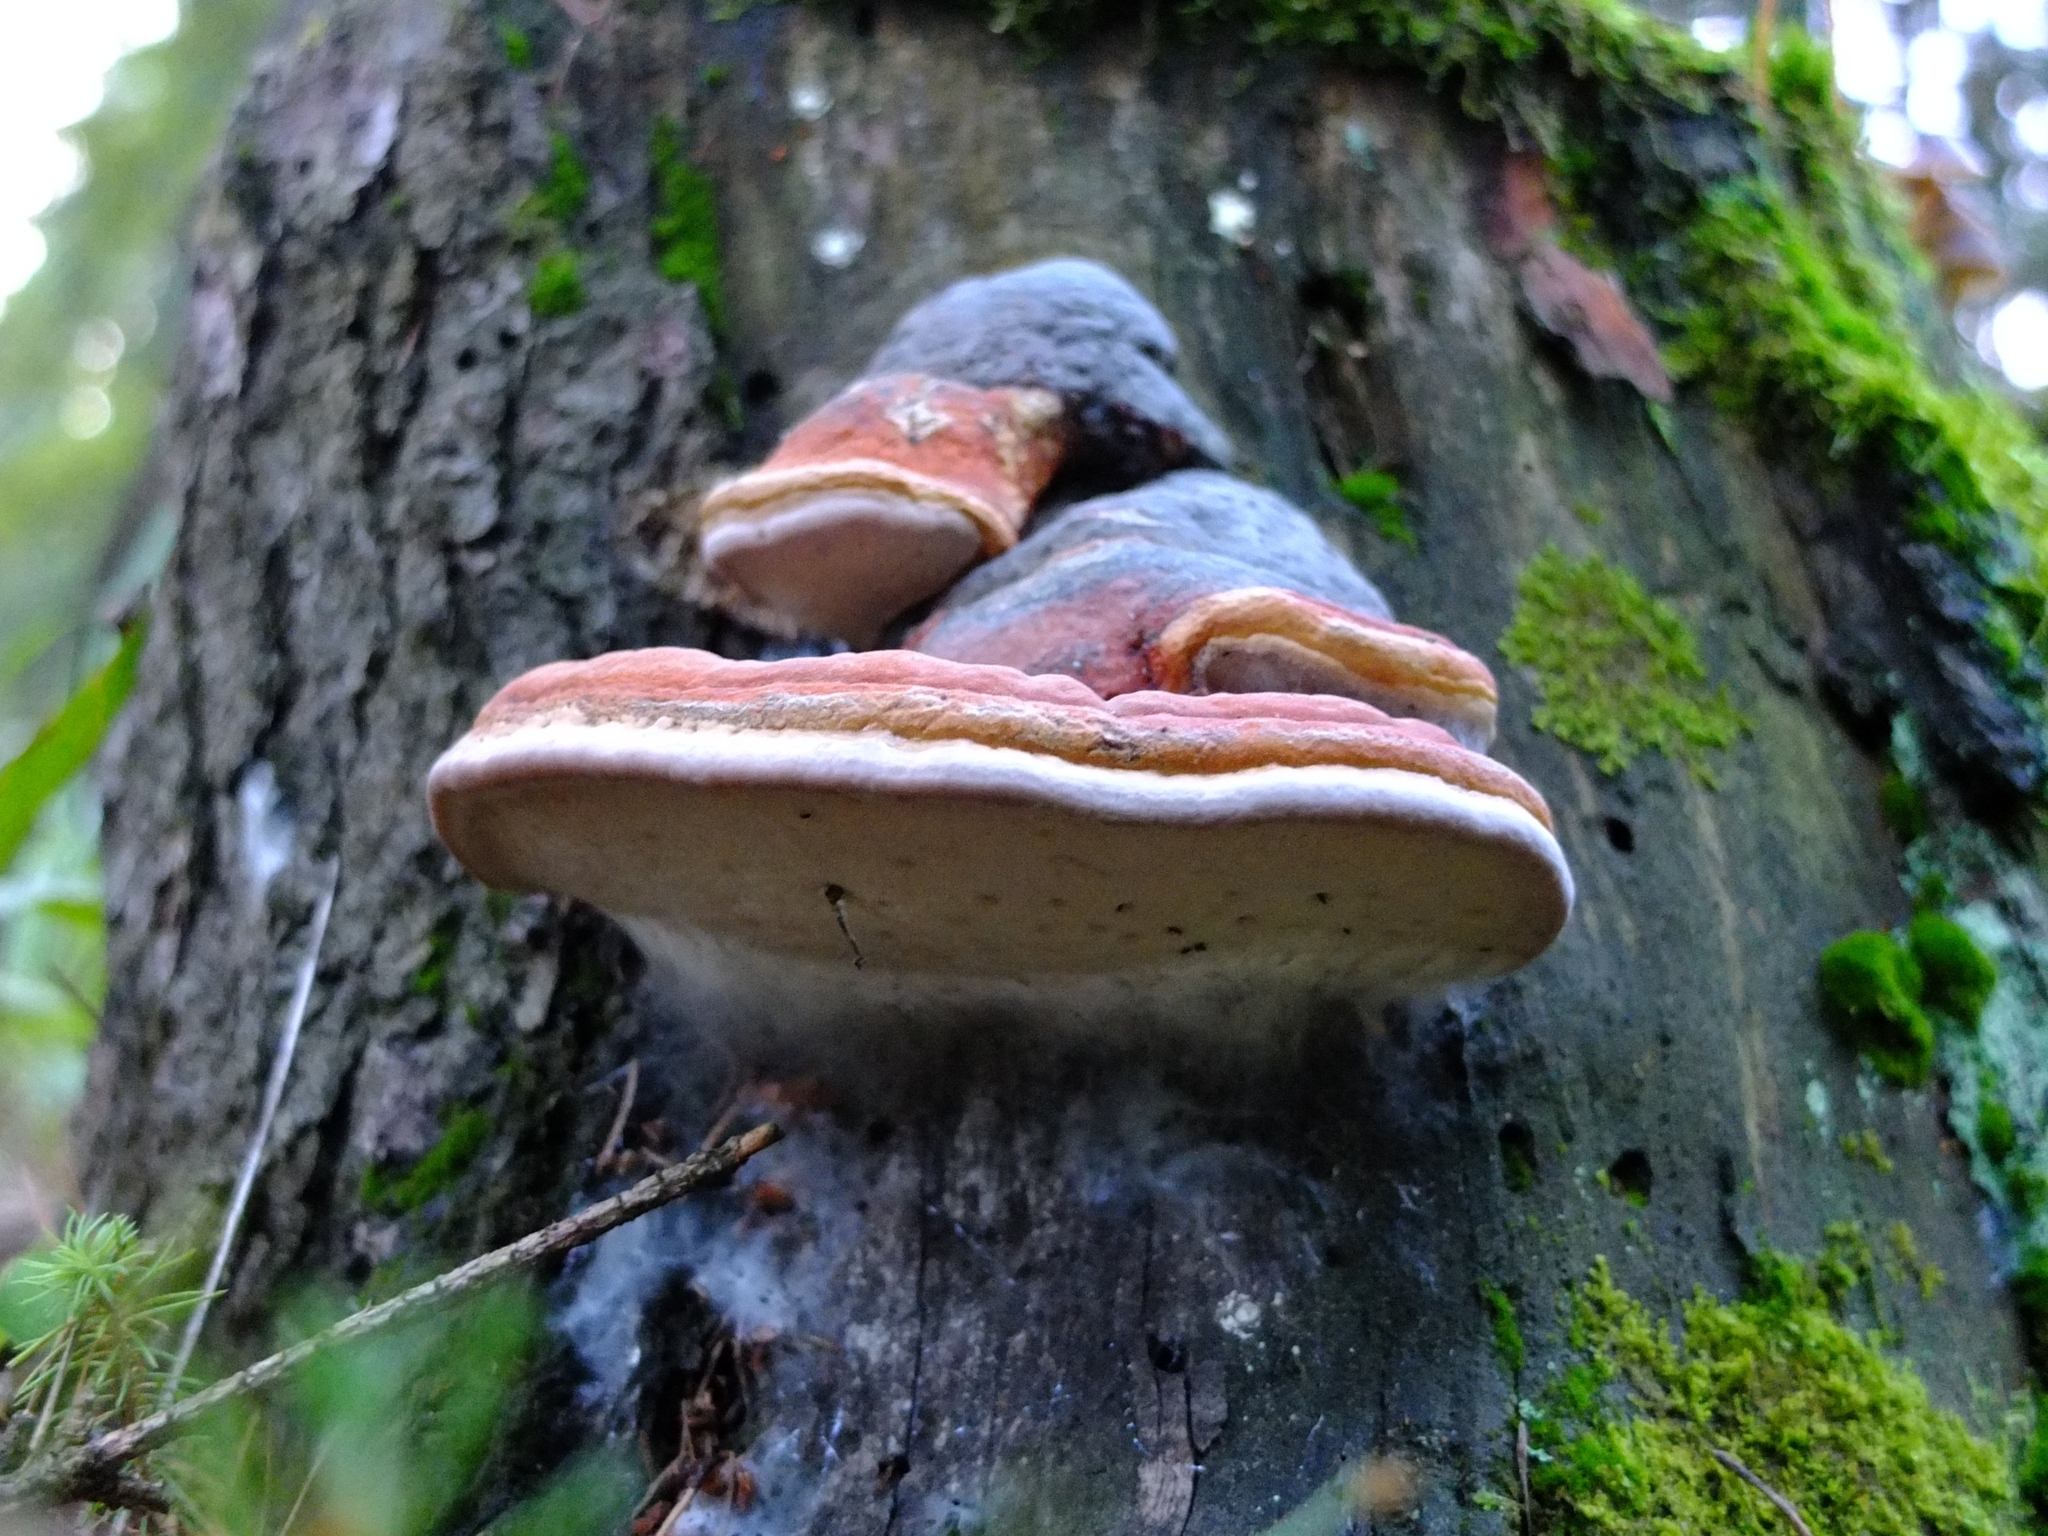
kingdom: Fungi
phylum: Basidiomycota
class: Agaricomycetes
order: Polyporales
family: Fomitopsidaceae
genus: Fomitopsis
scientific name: Fomitopsis pinicola
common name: Red-belted bracket
